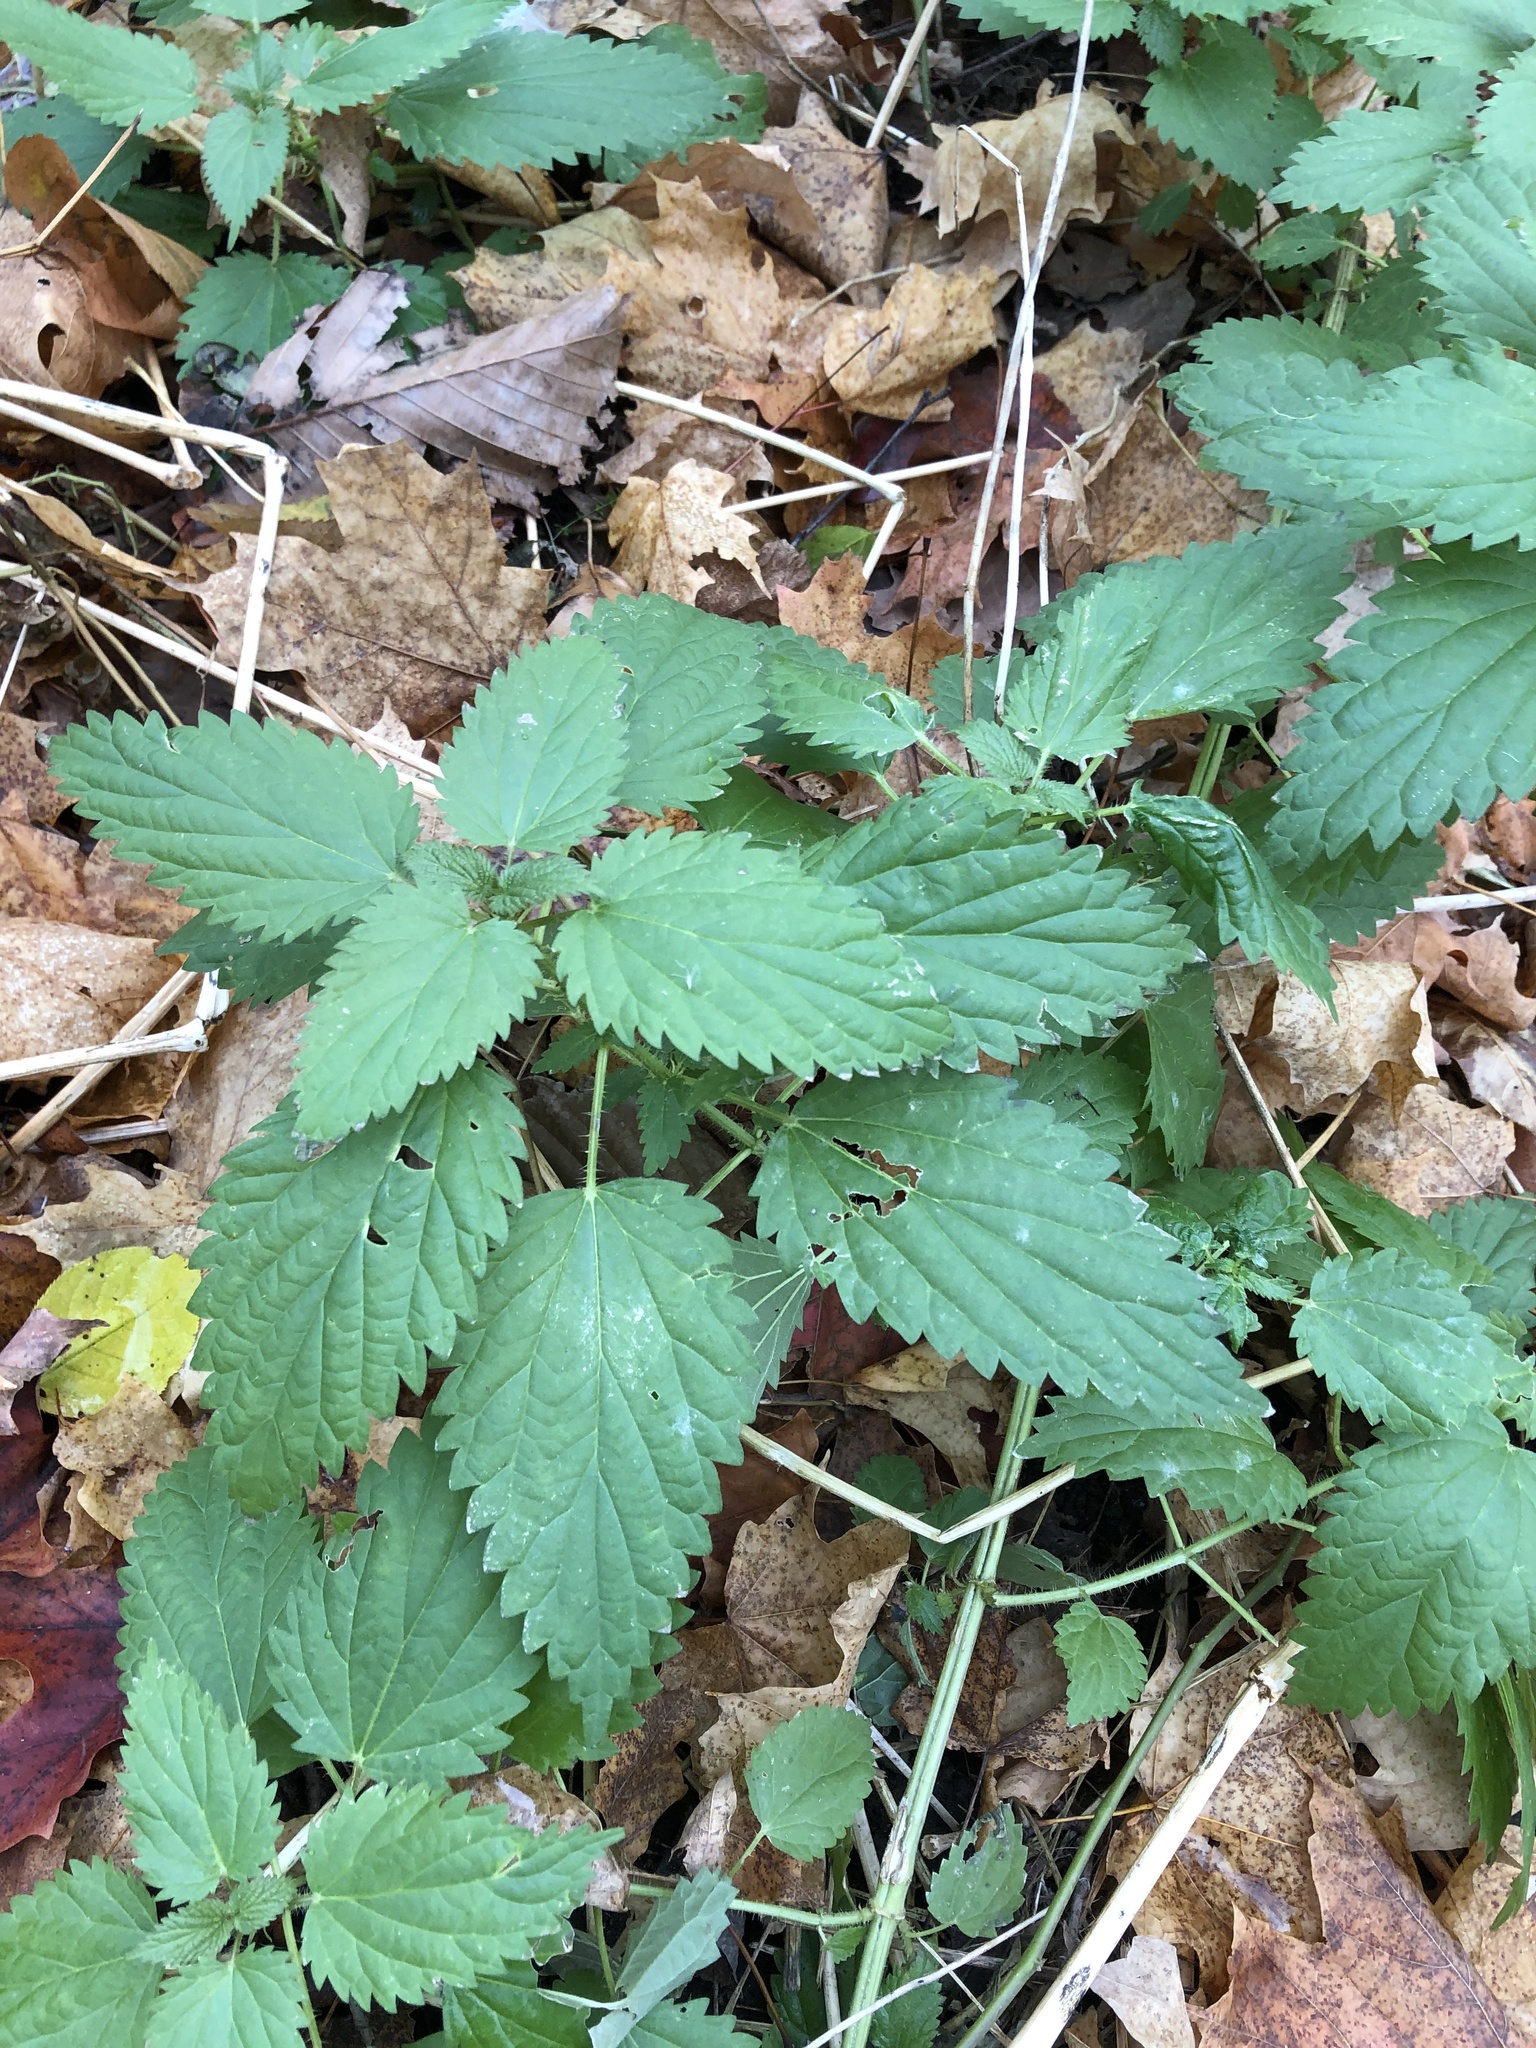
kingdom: Plantae
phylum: Tracheophyta
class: Magnoliopsida
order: Rosales
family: Urticaceae
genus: Urtica
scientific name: Urtica dioica
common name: Common nettle
